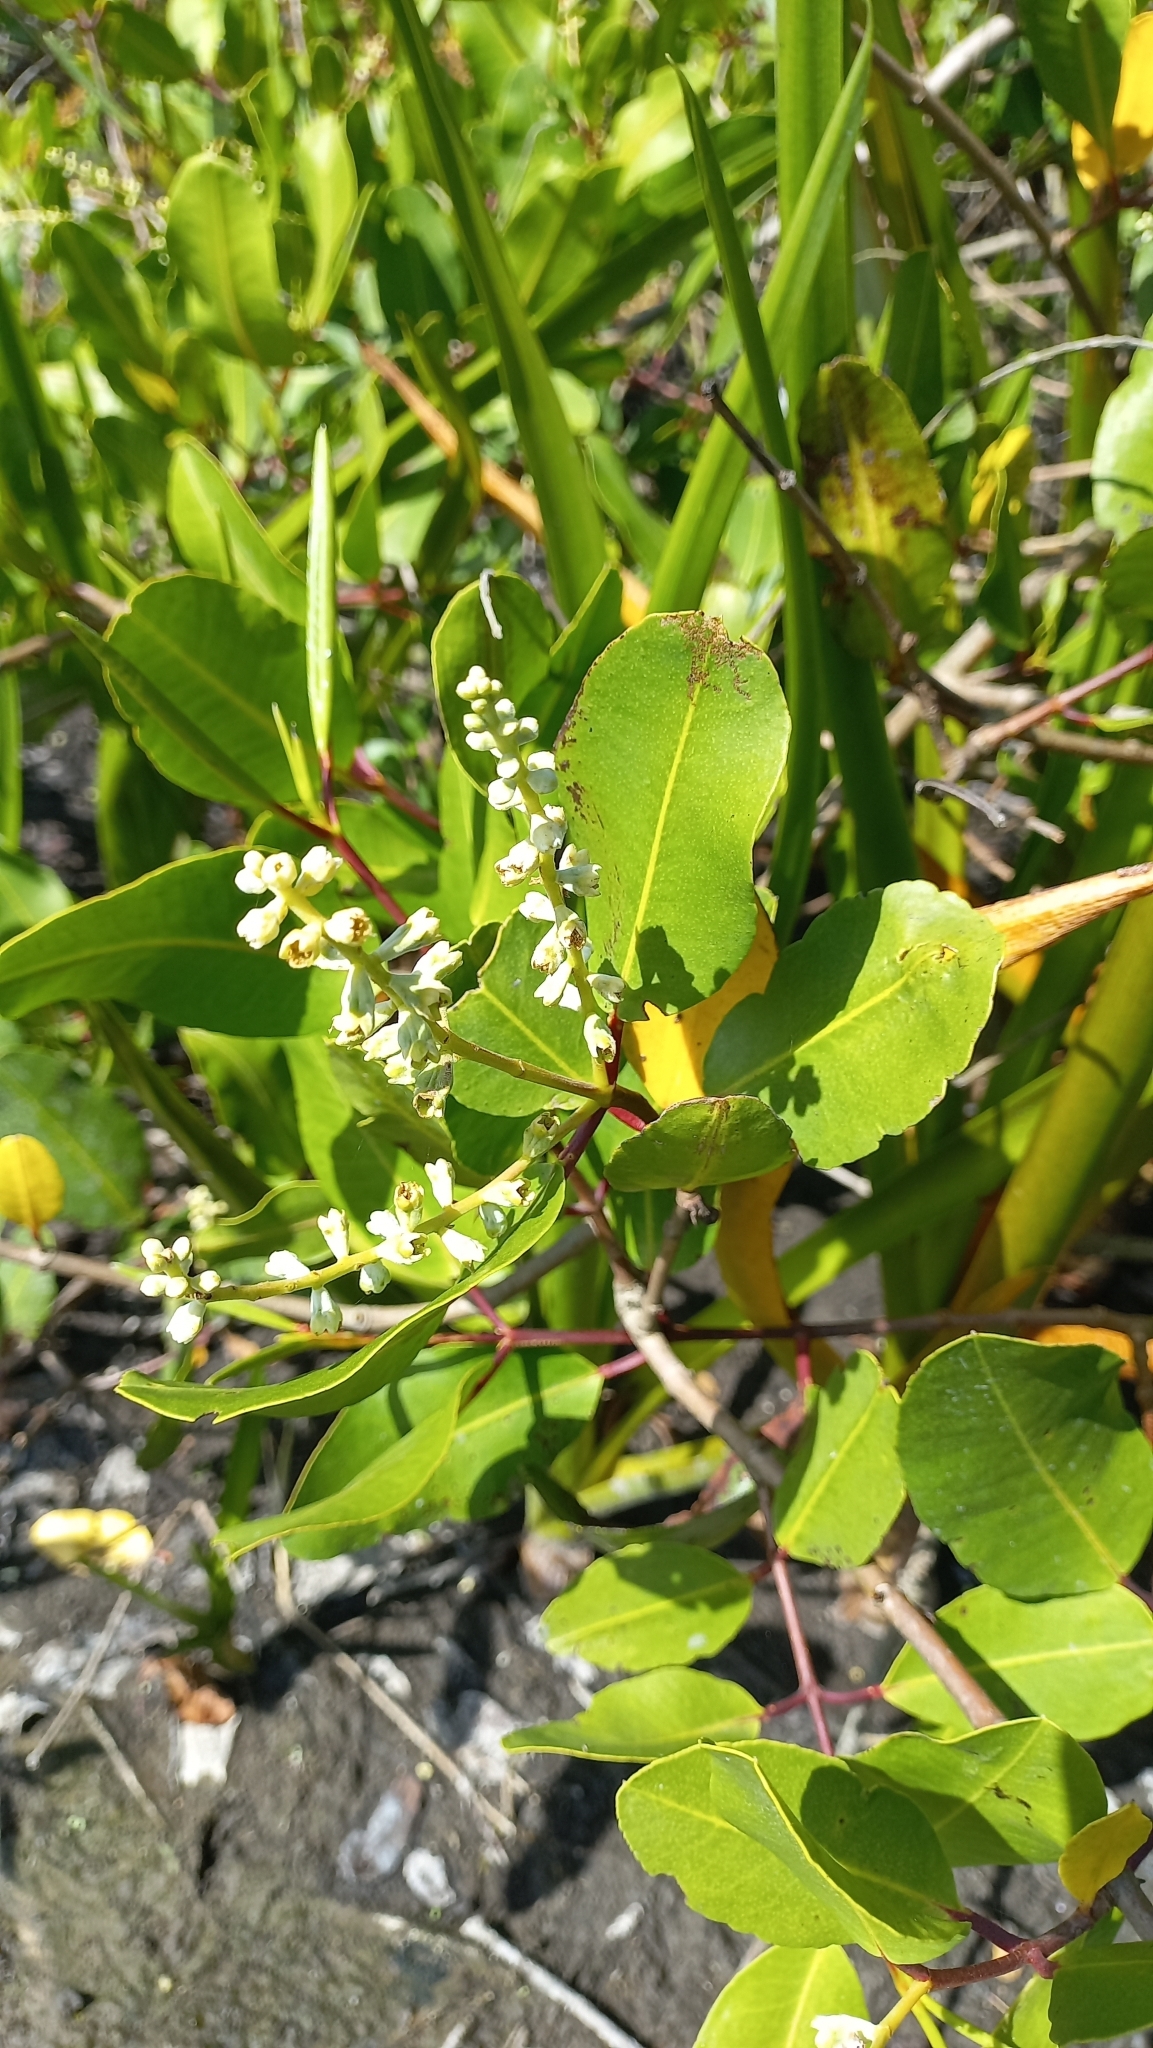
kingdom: Plantae
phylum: Tracheophyta
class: Magnoliopsida
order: Myrtales
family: Combretaceae
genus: Laguncularia
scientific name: Laguncularia racemosa
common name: White mangrove
